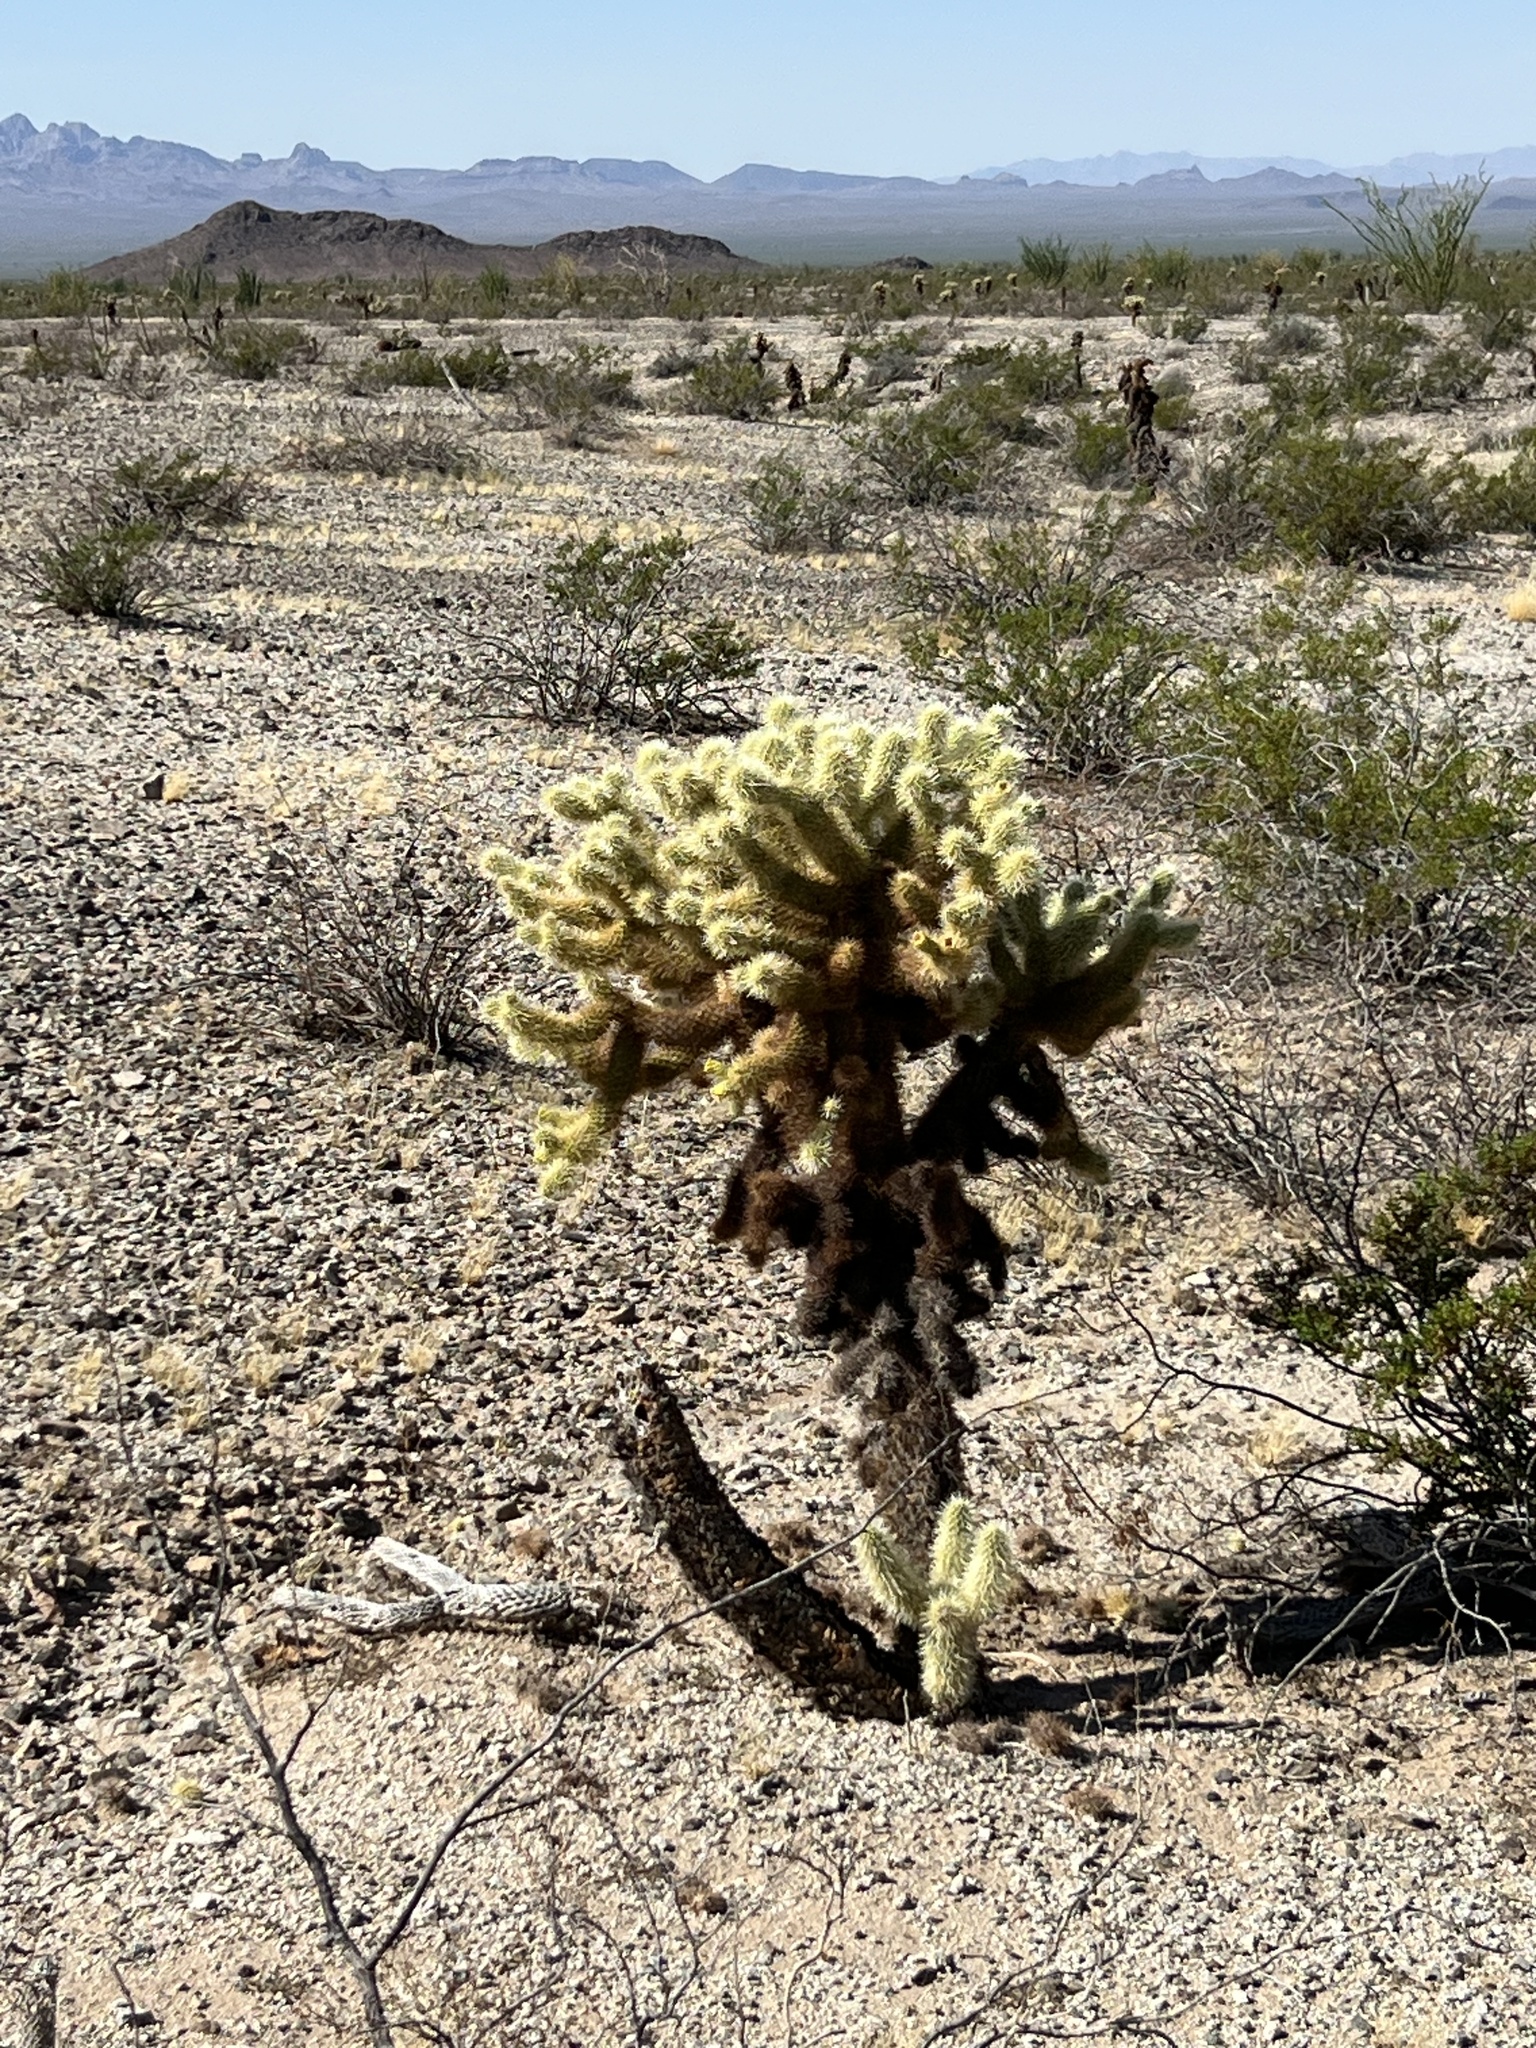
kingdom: Plantae
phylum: Tracheophyta
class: Magnoliopsida
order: Caryophyllales
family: Cactaceae
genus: Cylindropuntia
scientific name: Cylindropuntia fosbergii
